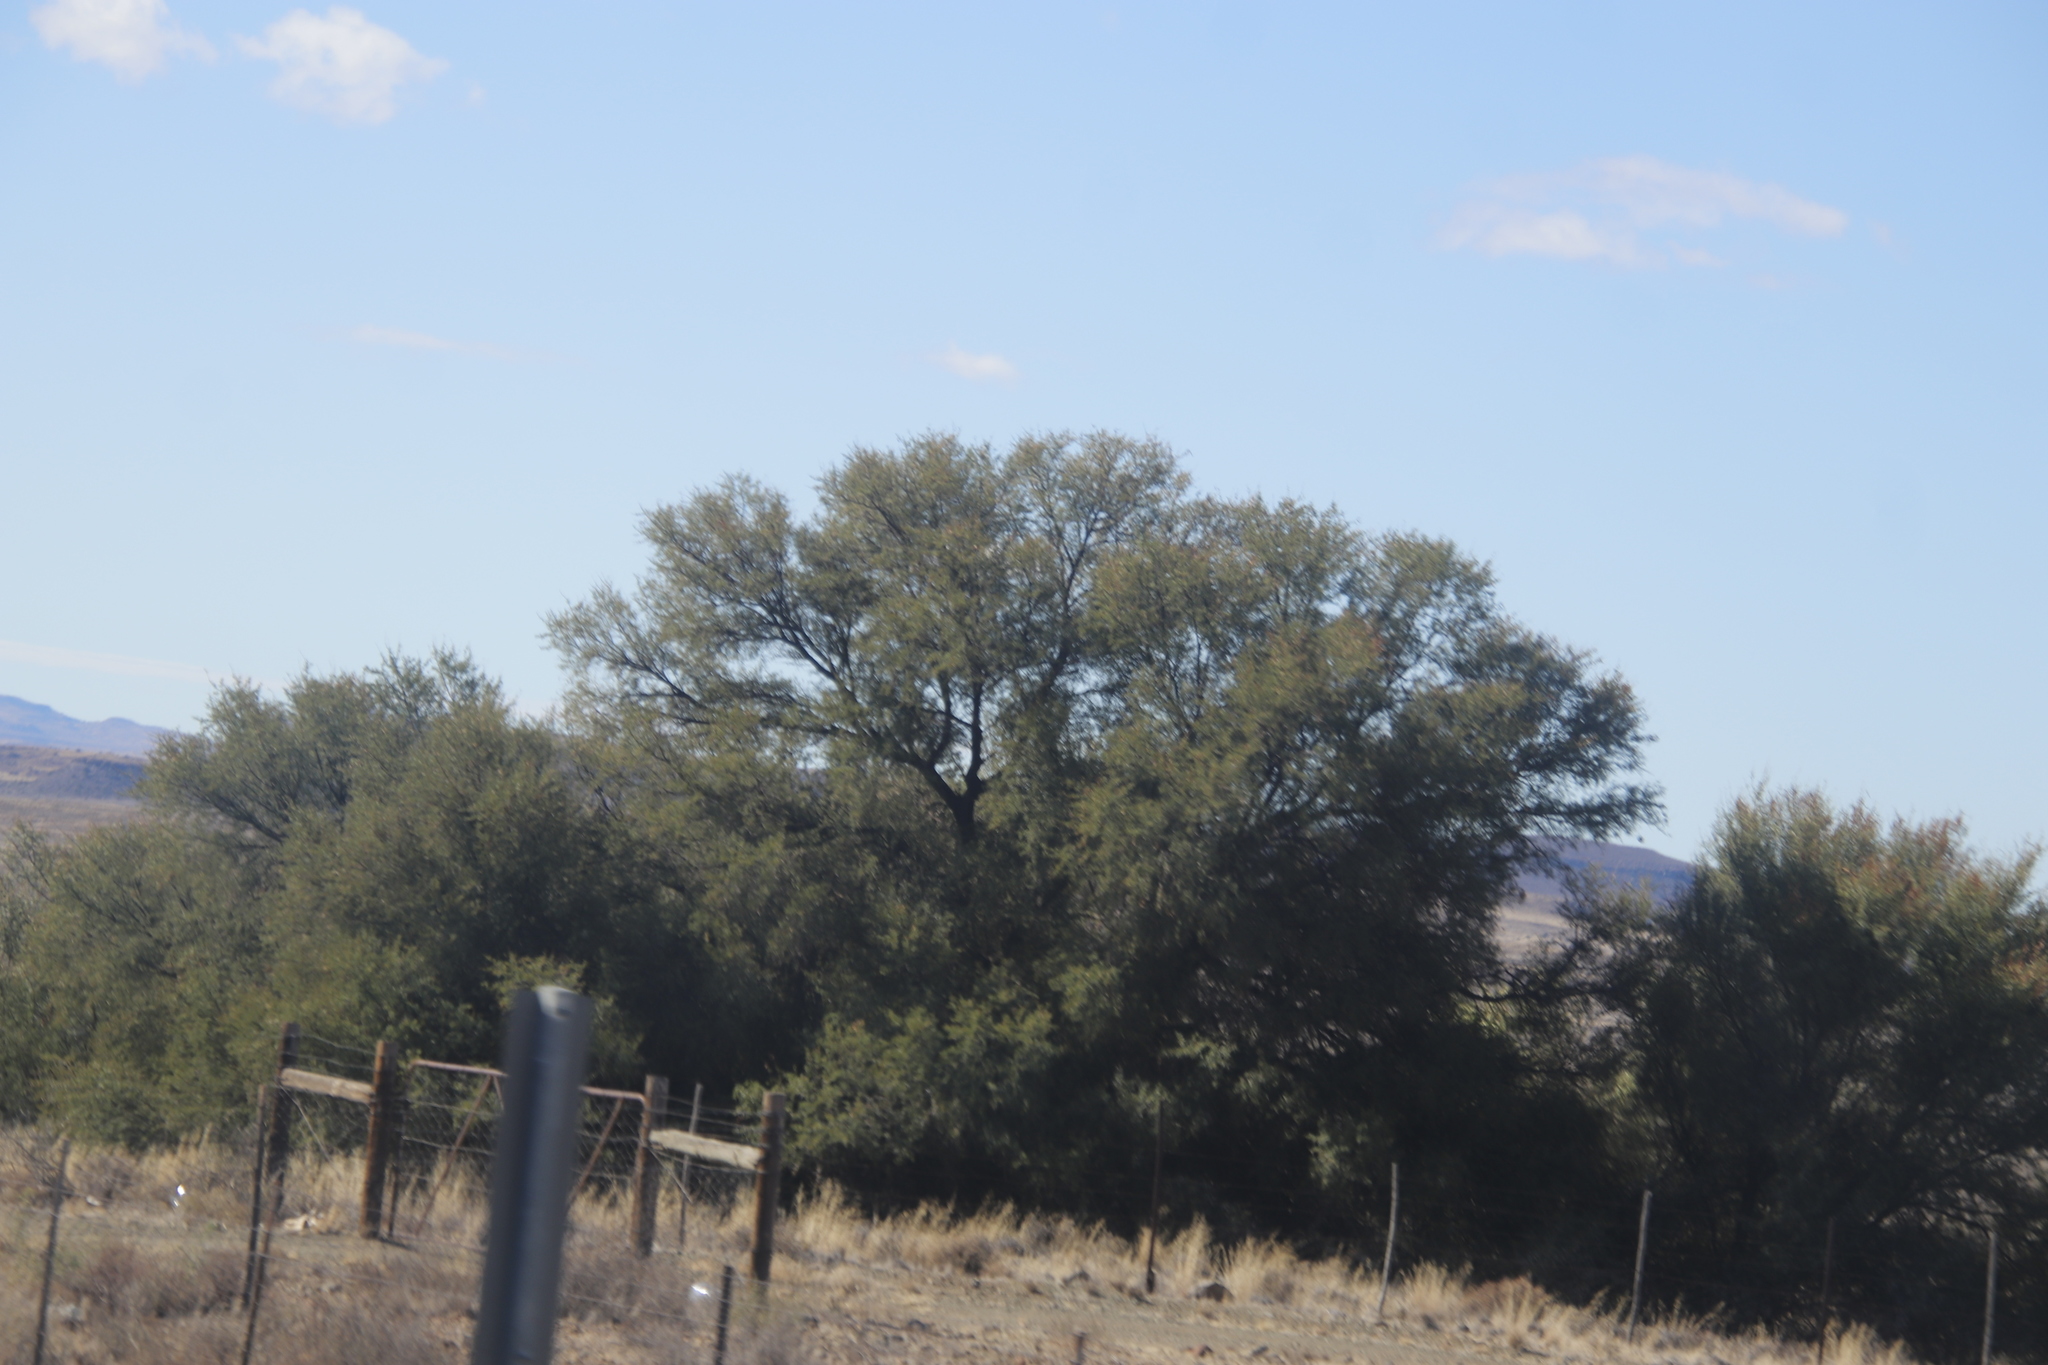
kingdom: Plantae
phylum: Tracheophyta
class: Magnoliopsida
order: Fabales
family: Fabaceae
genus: Vachellia
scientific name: Vachellia karroo
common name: Sweet thorn
